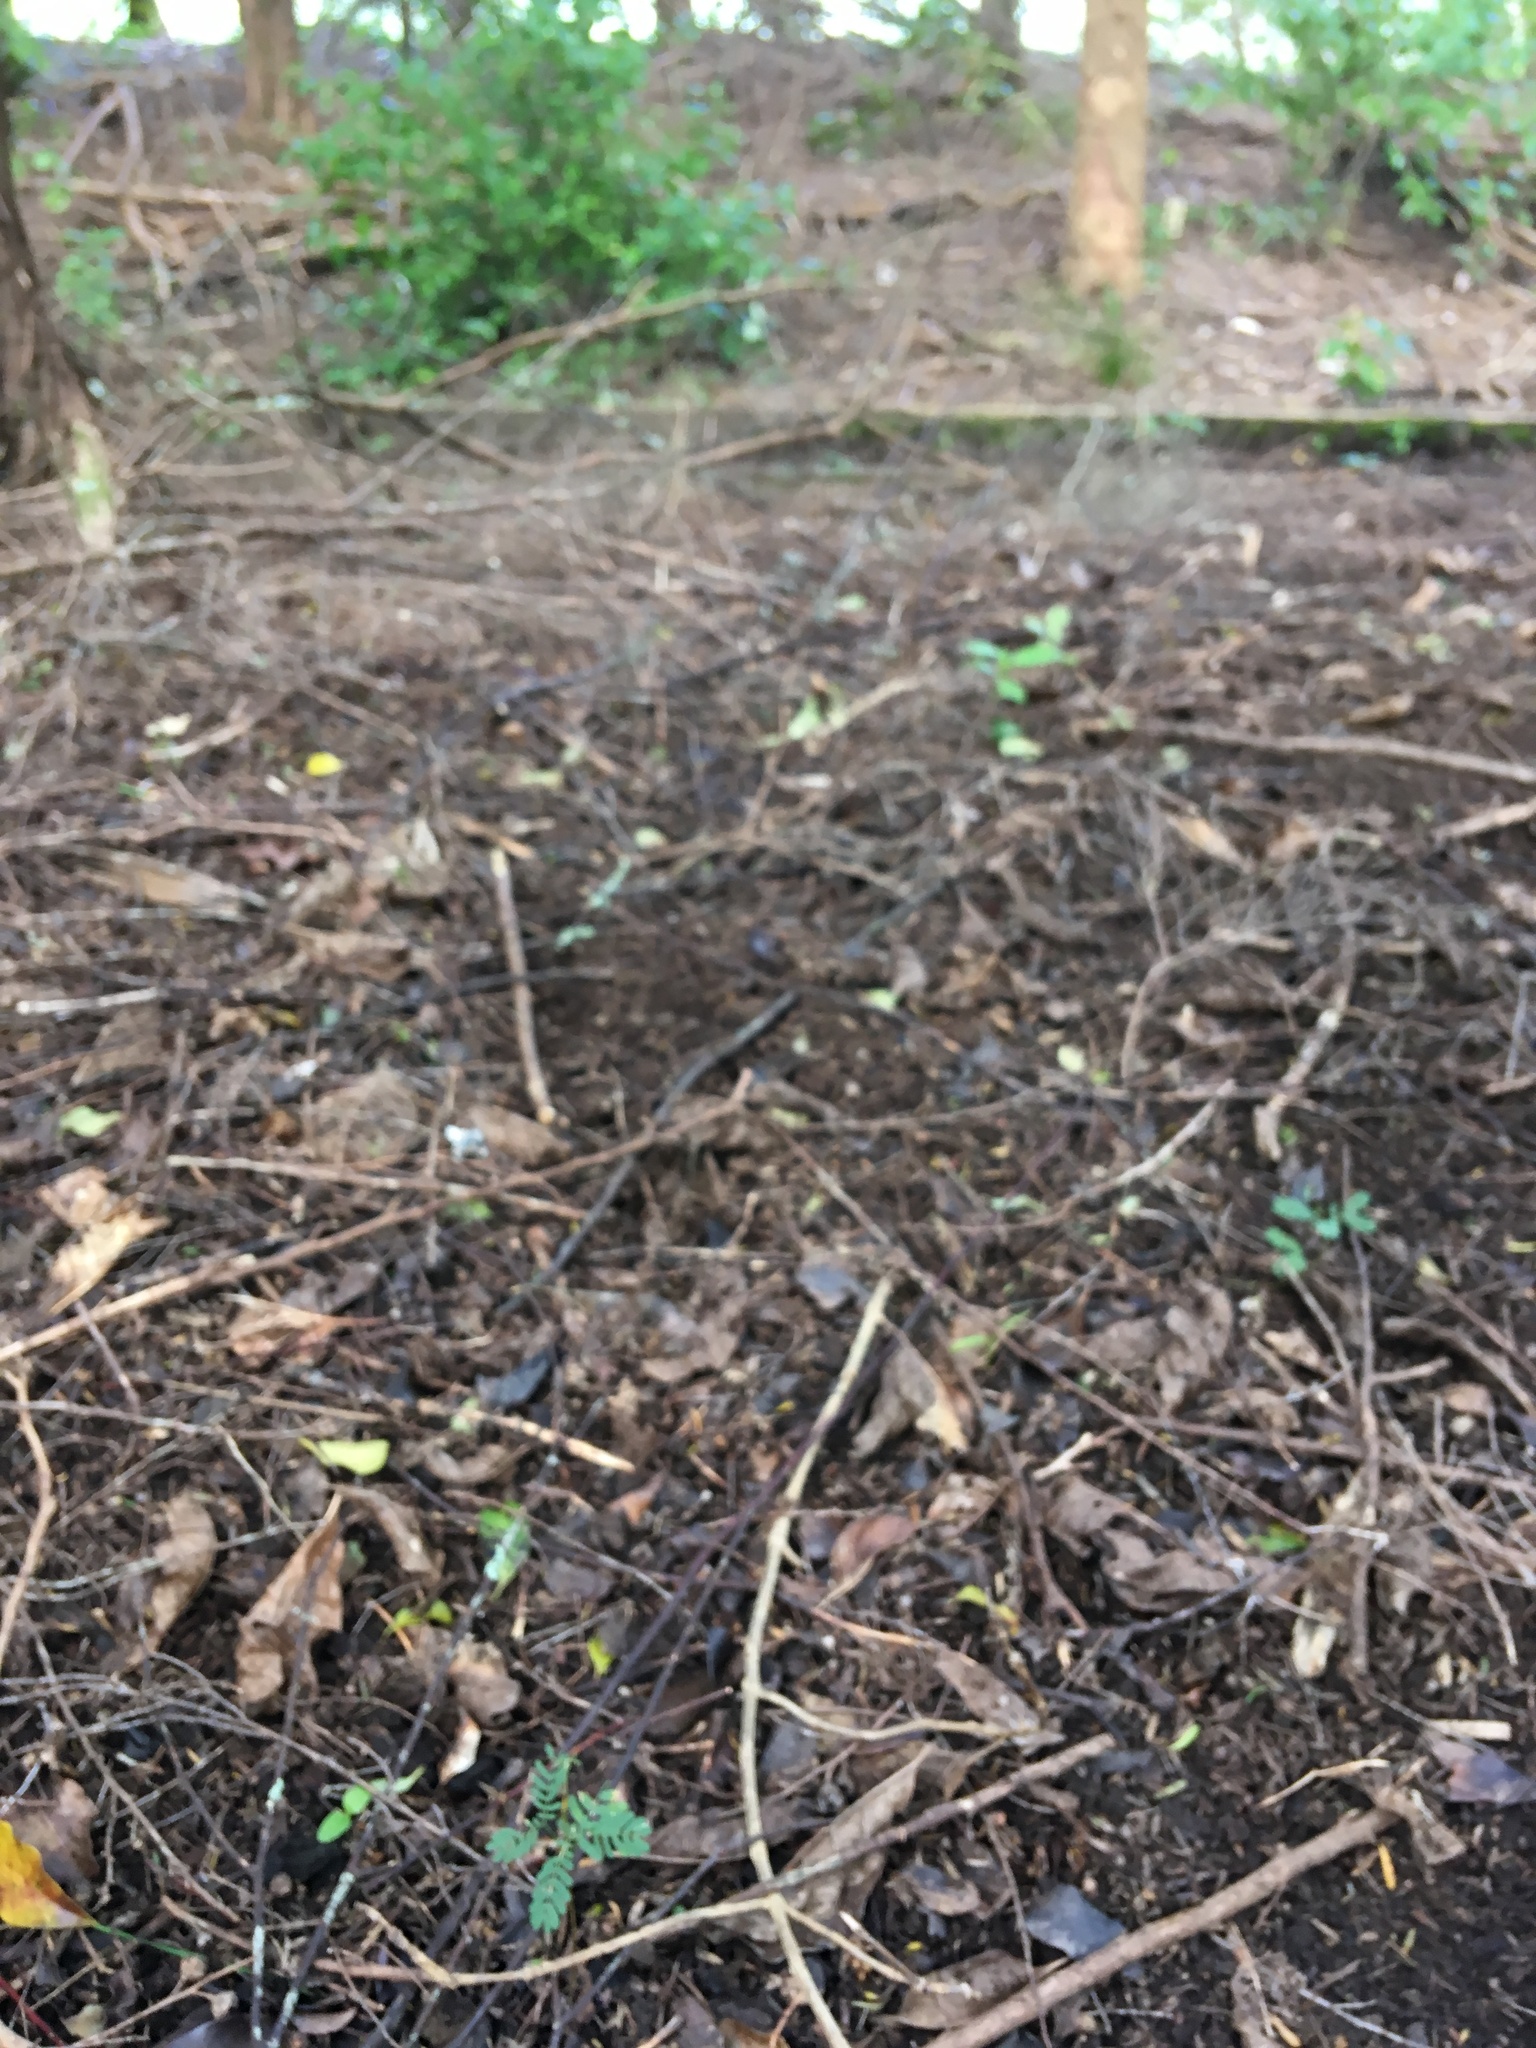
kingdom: Plantae
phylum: Tracheophyta
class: Magnoliopsida
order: Fabales
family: Fabaceae
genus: Paraserianthes
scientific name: Paraserianthes lophantha
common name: Plume albizia
